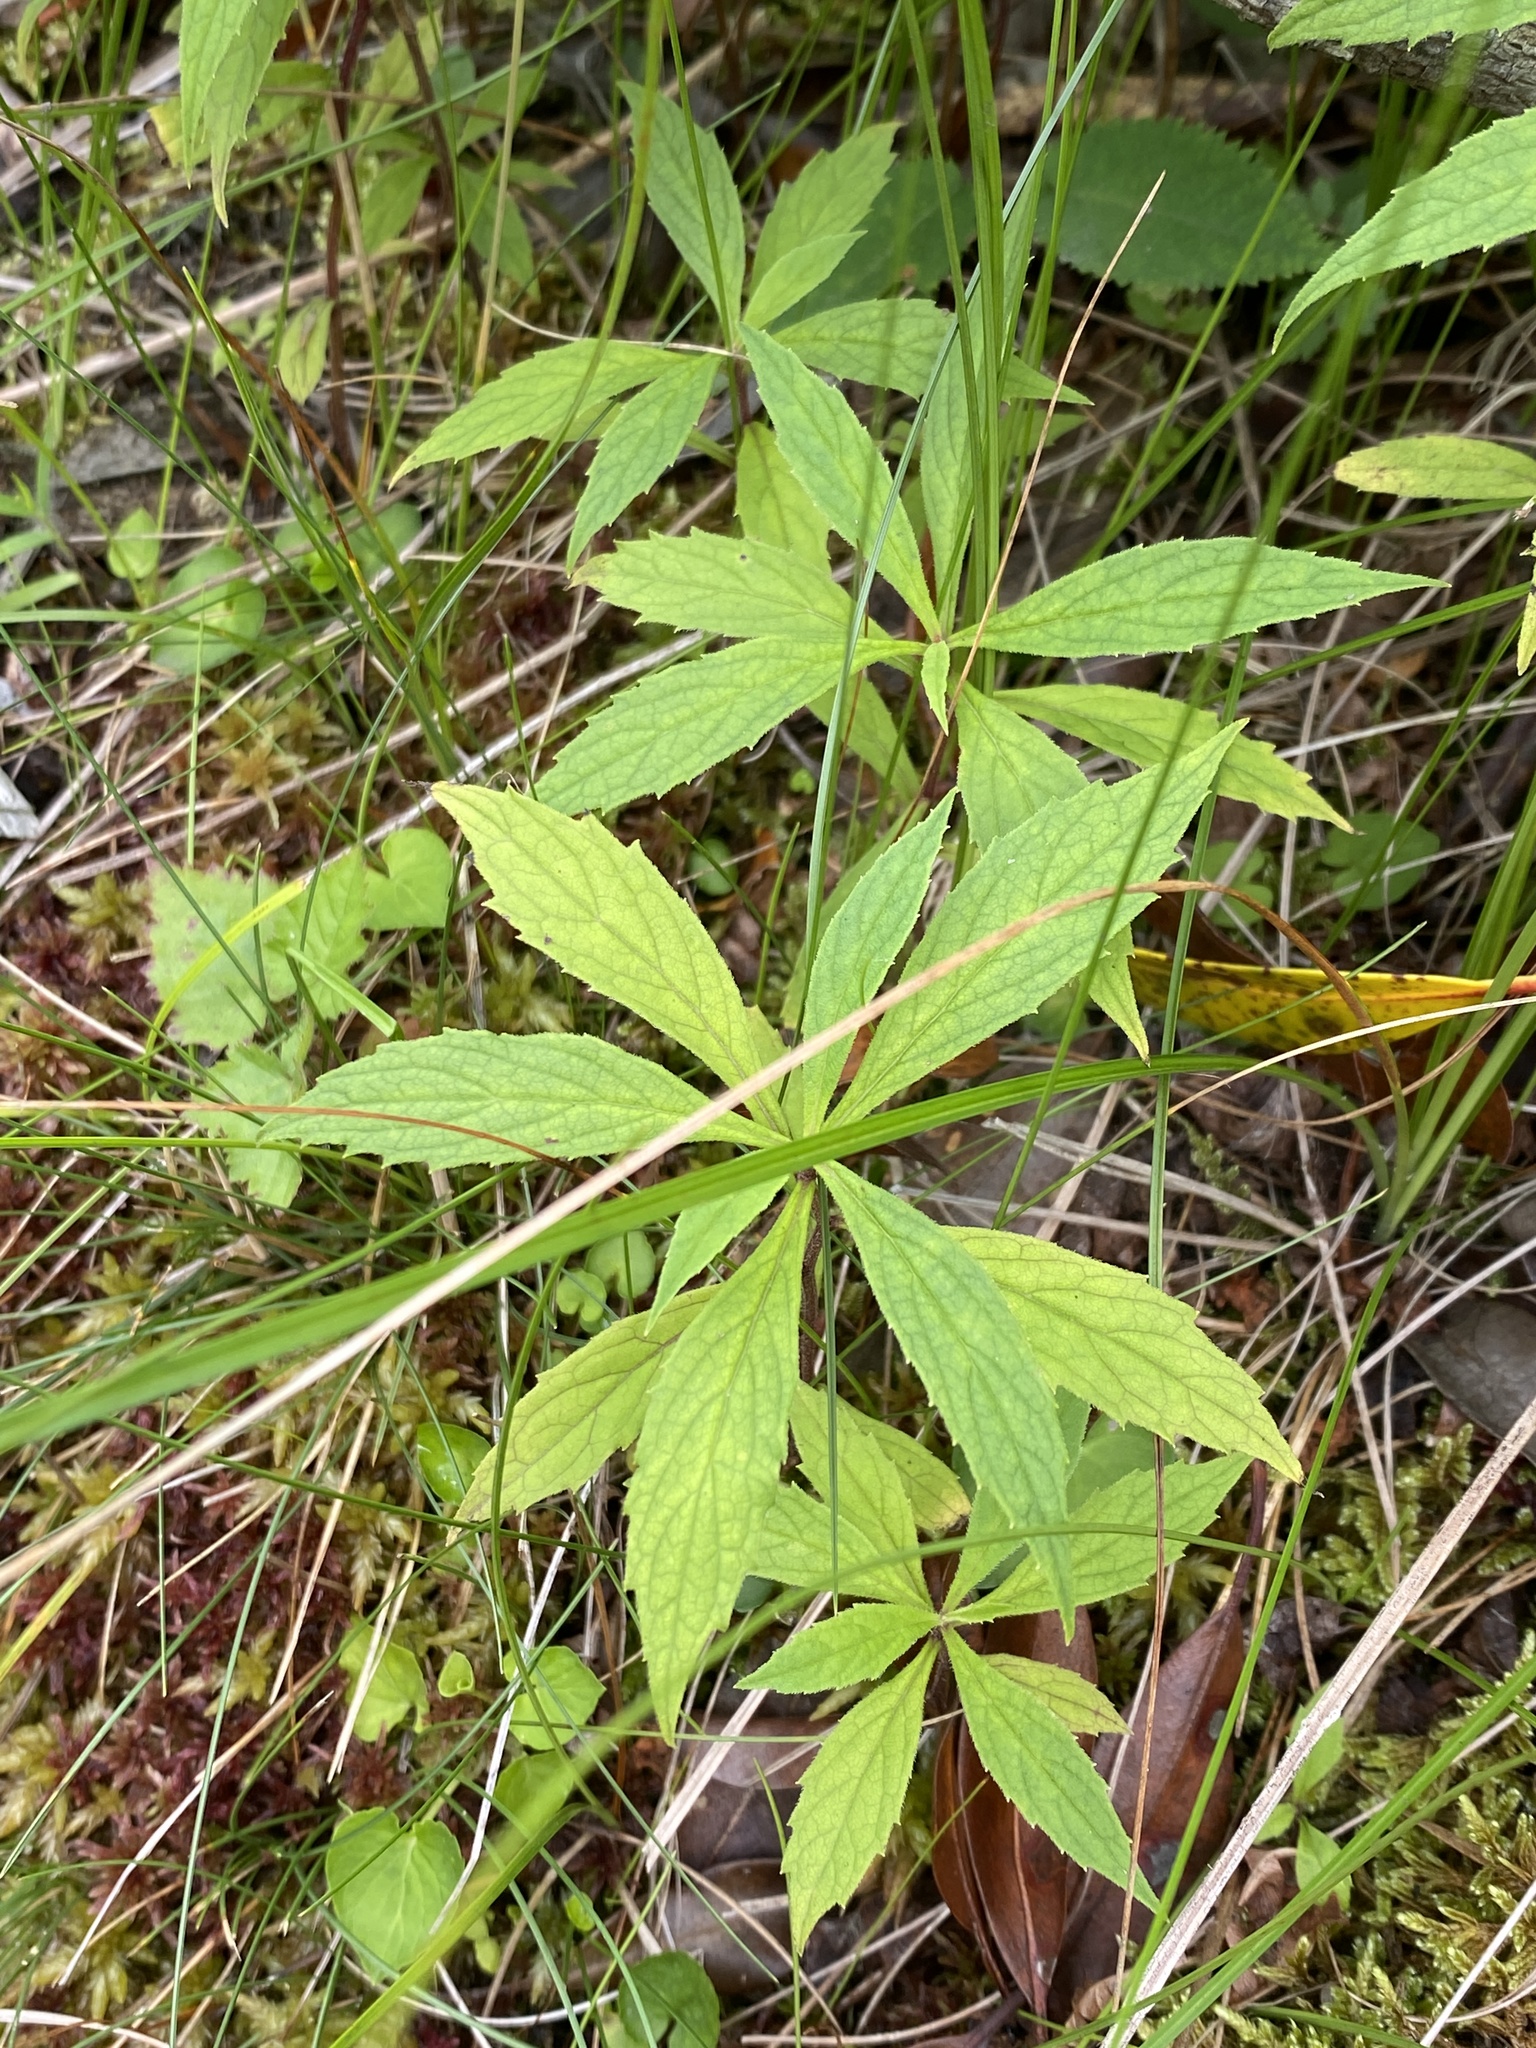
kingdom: Plantae
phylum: Tracheophyta
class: Magnoliopsida
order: Asterales
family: Asteraceae
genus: Oclemena
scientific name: Oclemena acuminata
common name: Mountain aster
